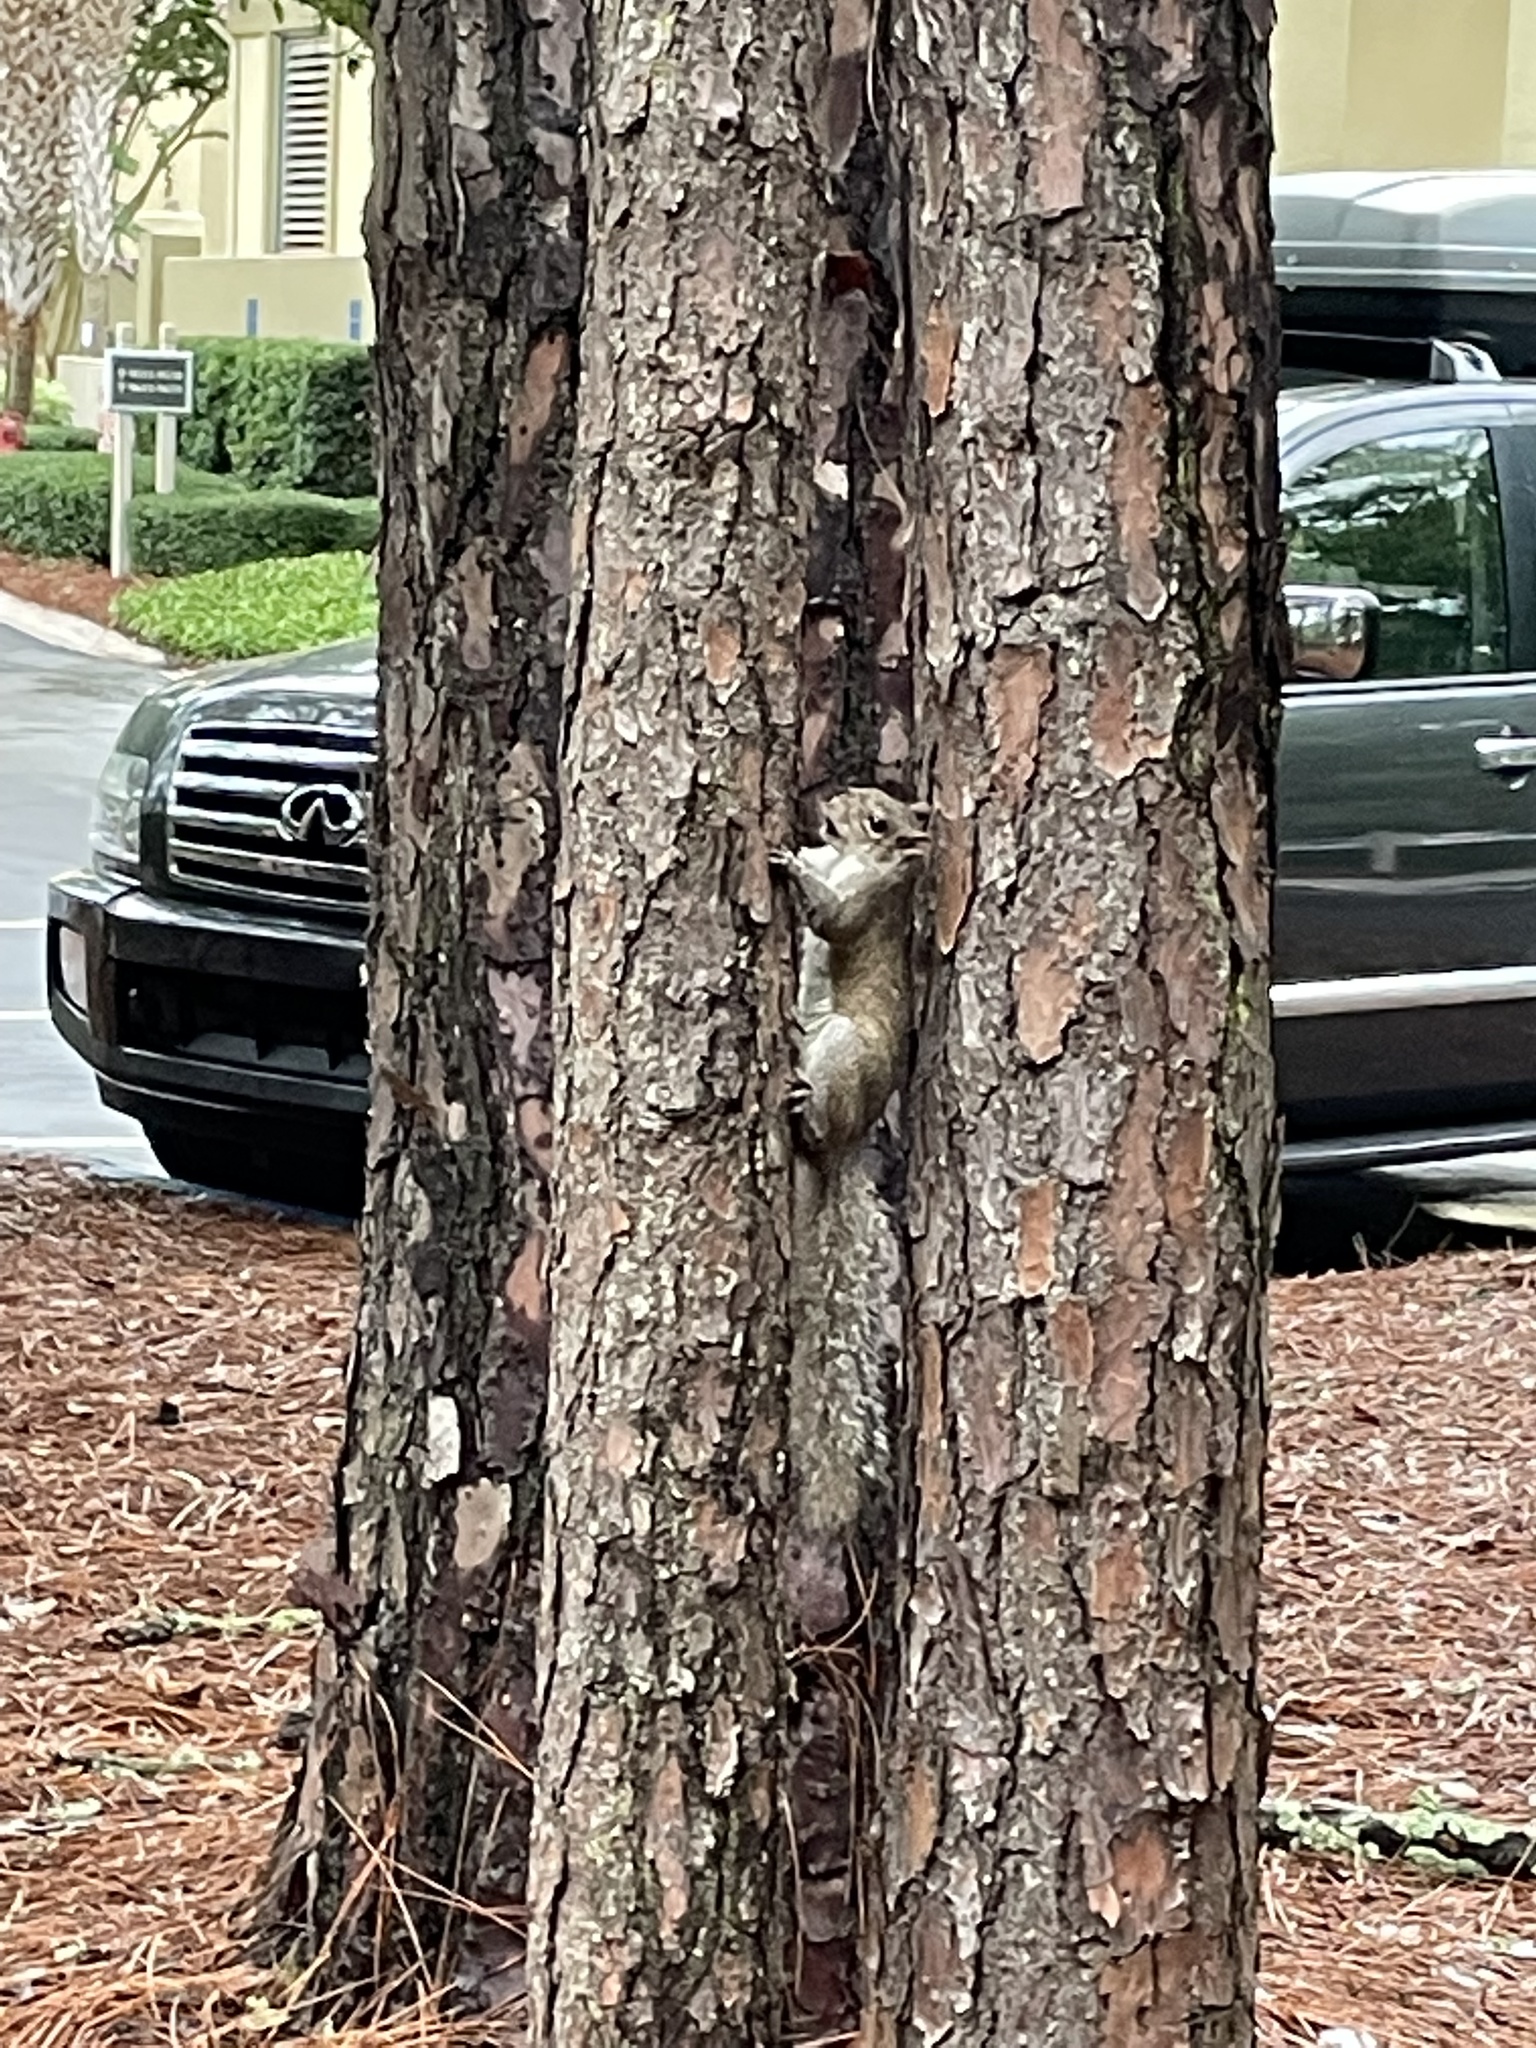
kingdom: Animalia
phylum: Chordata
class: Mammalia
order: Rodentia
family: Sciuridae
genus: Sciurus
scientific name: Sciurus carolinensis
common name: Eastern gray squirrel
